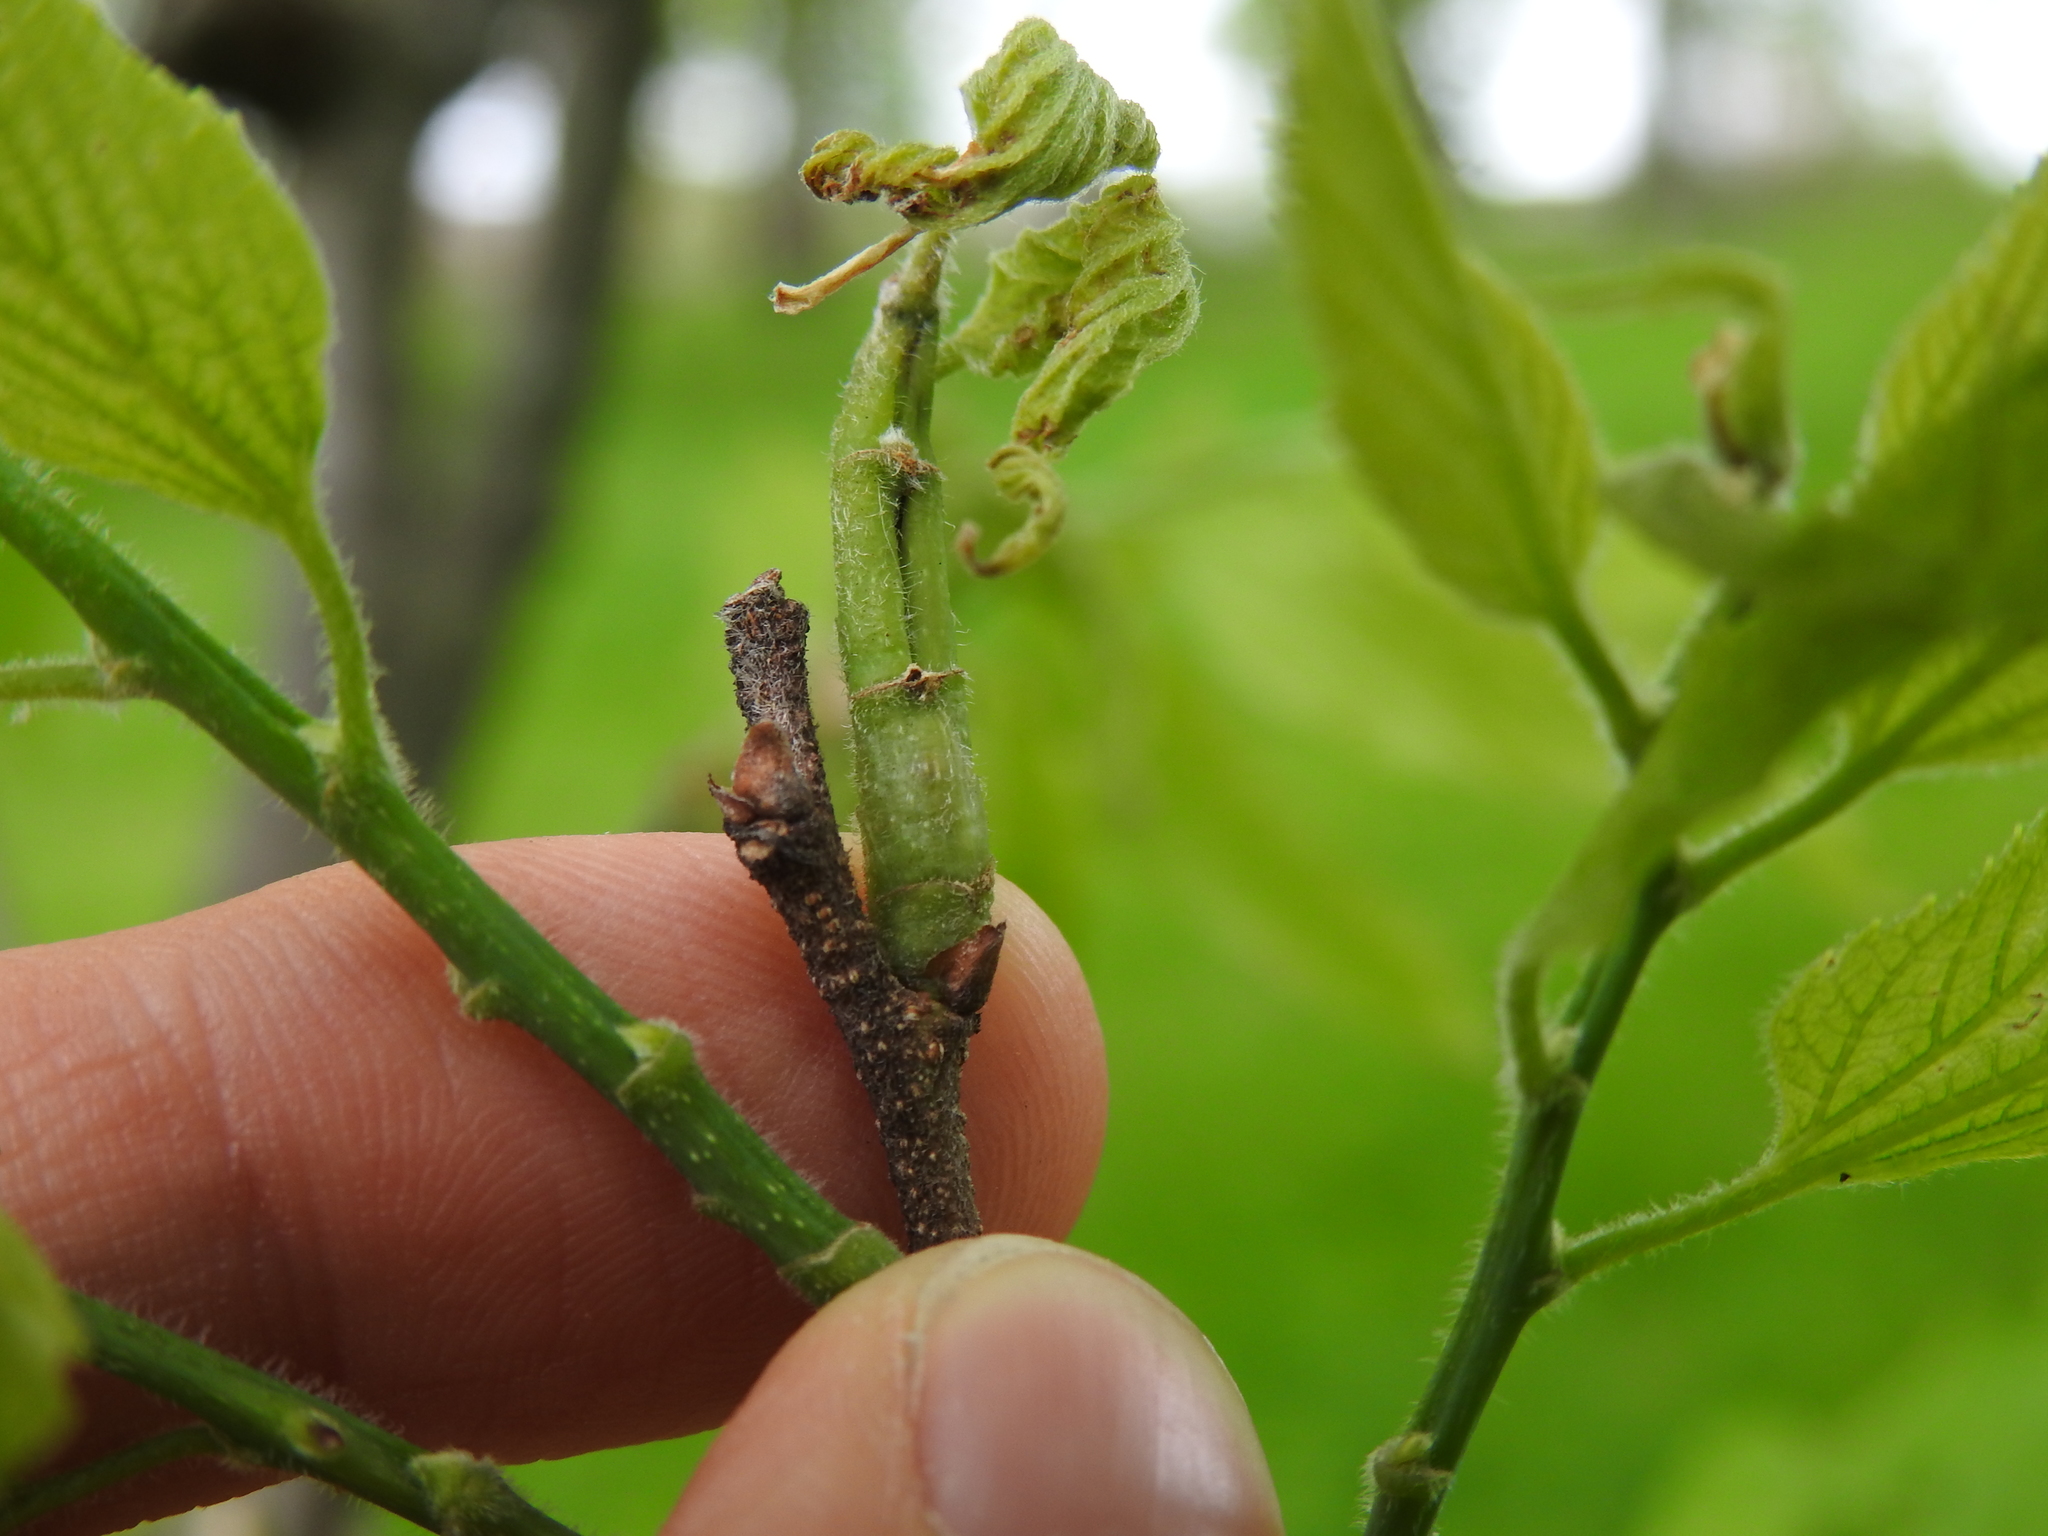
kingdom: Animalia
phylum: Arthropoda
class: Insecta
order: Diptera
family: Agromyzidae
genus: Agromyza
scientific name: Agromyza deserta
